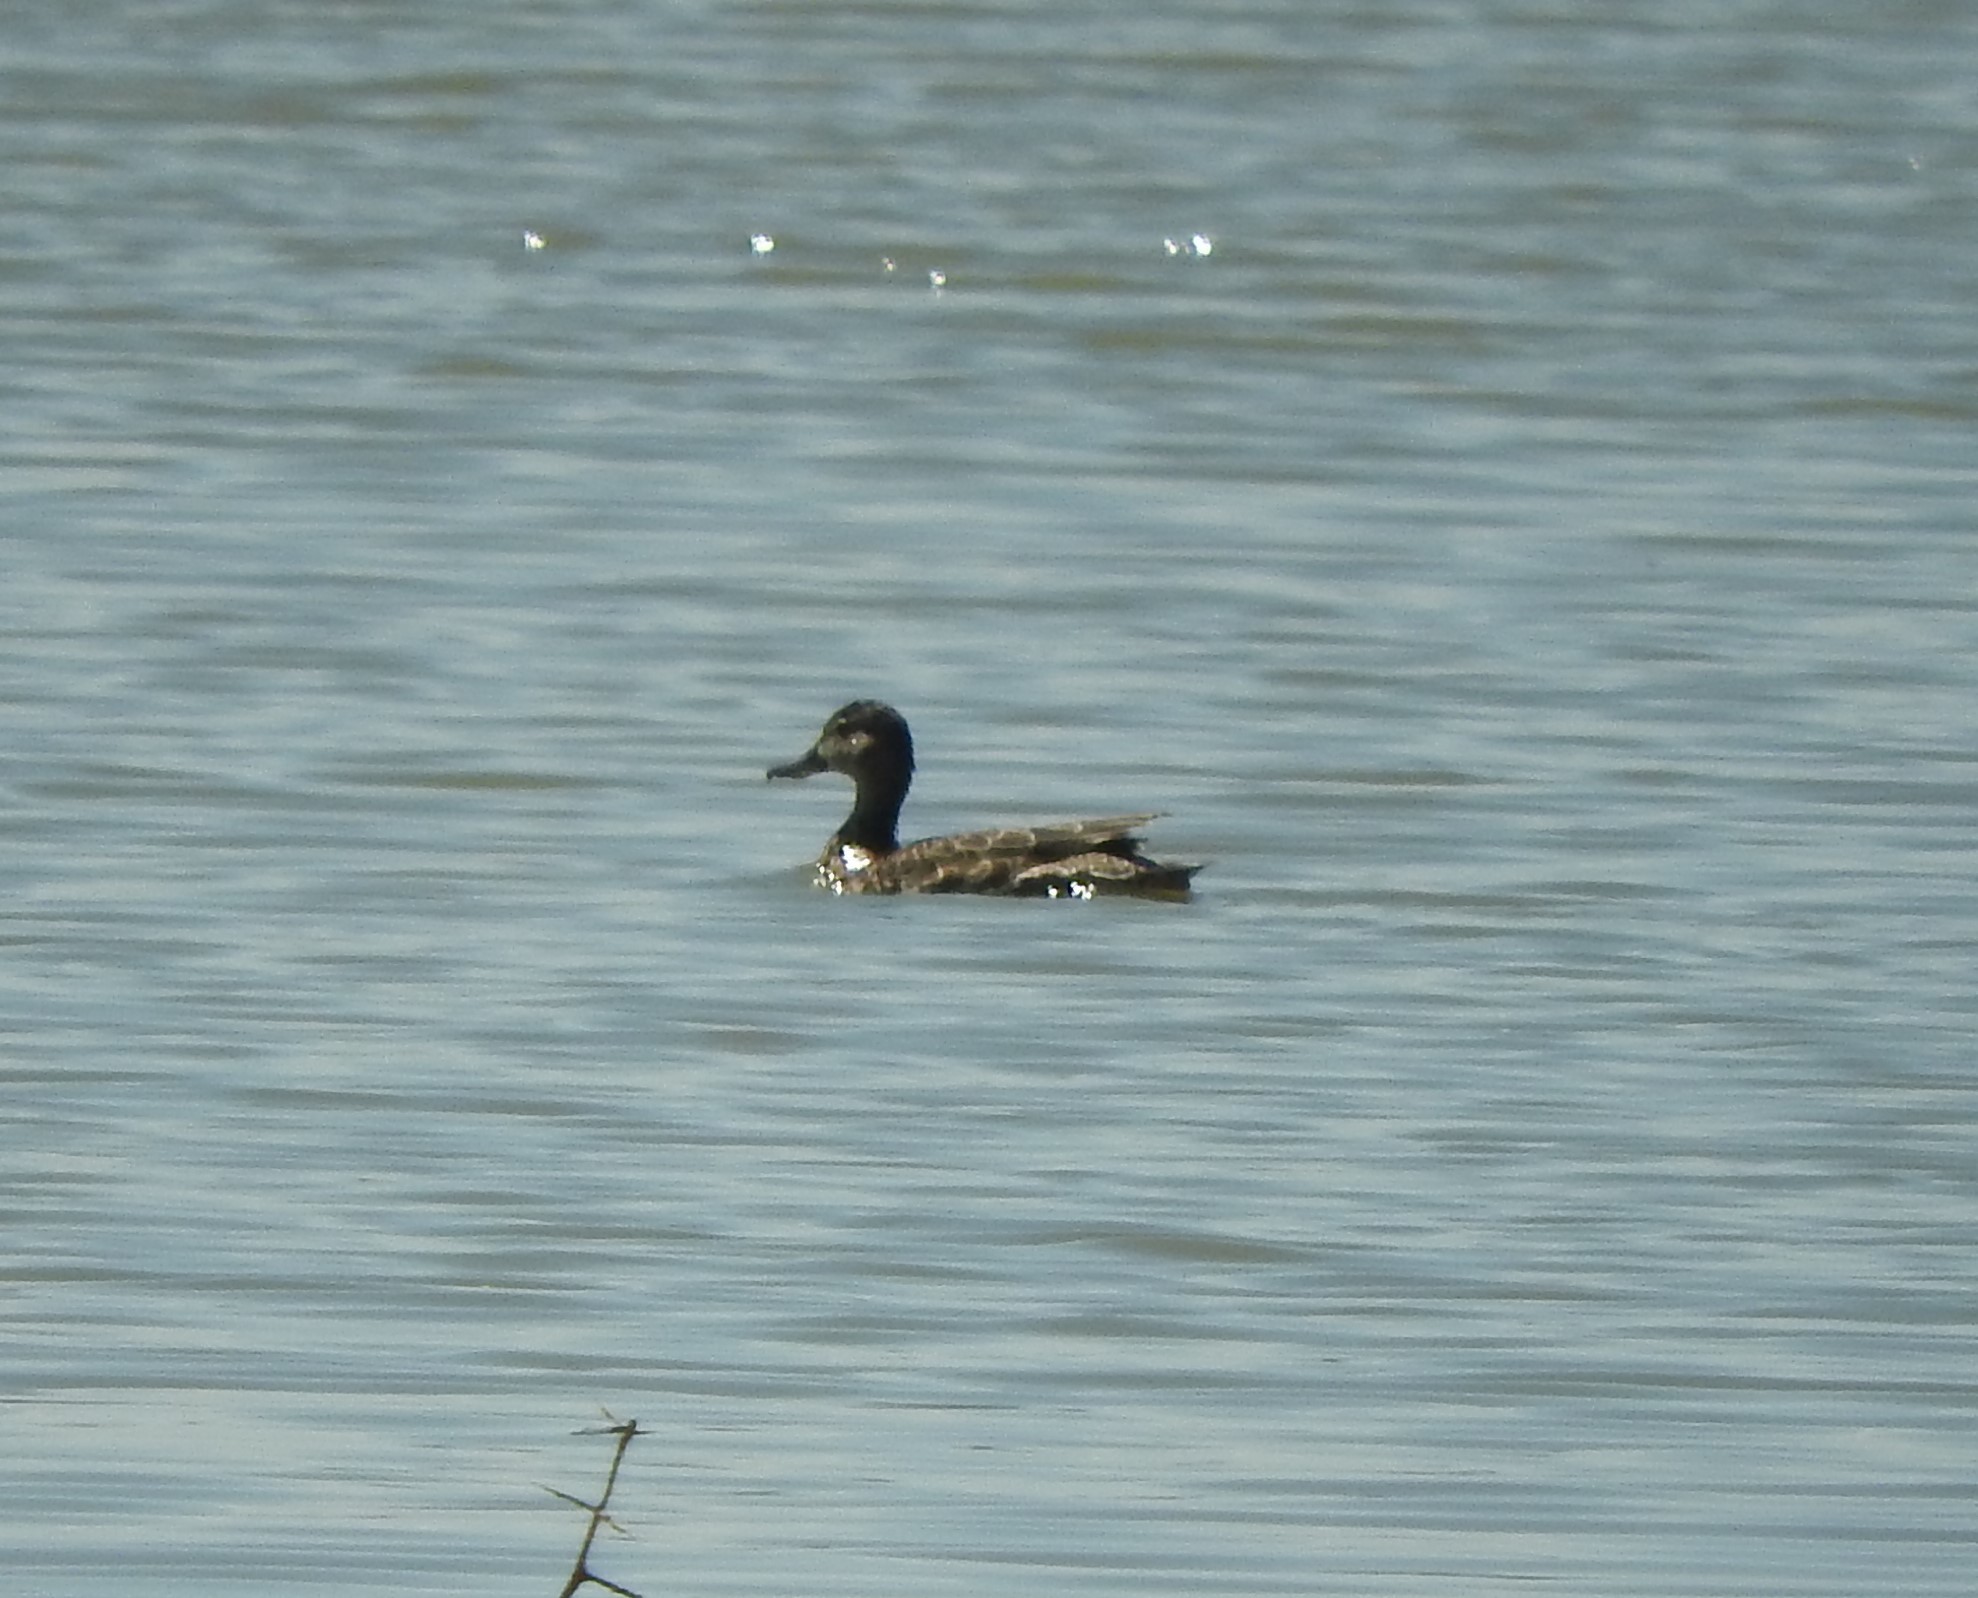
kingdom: Animalia
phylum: Chordata
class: Aves
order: Anseriformes
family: Anatidae
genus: Spatula
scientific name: Spatula discors
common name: Blue-winged teal
